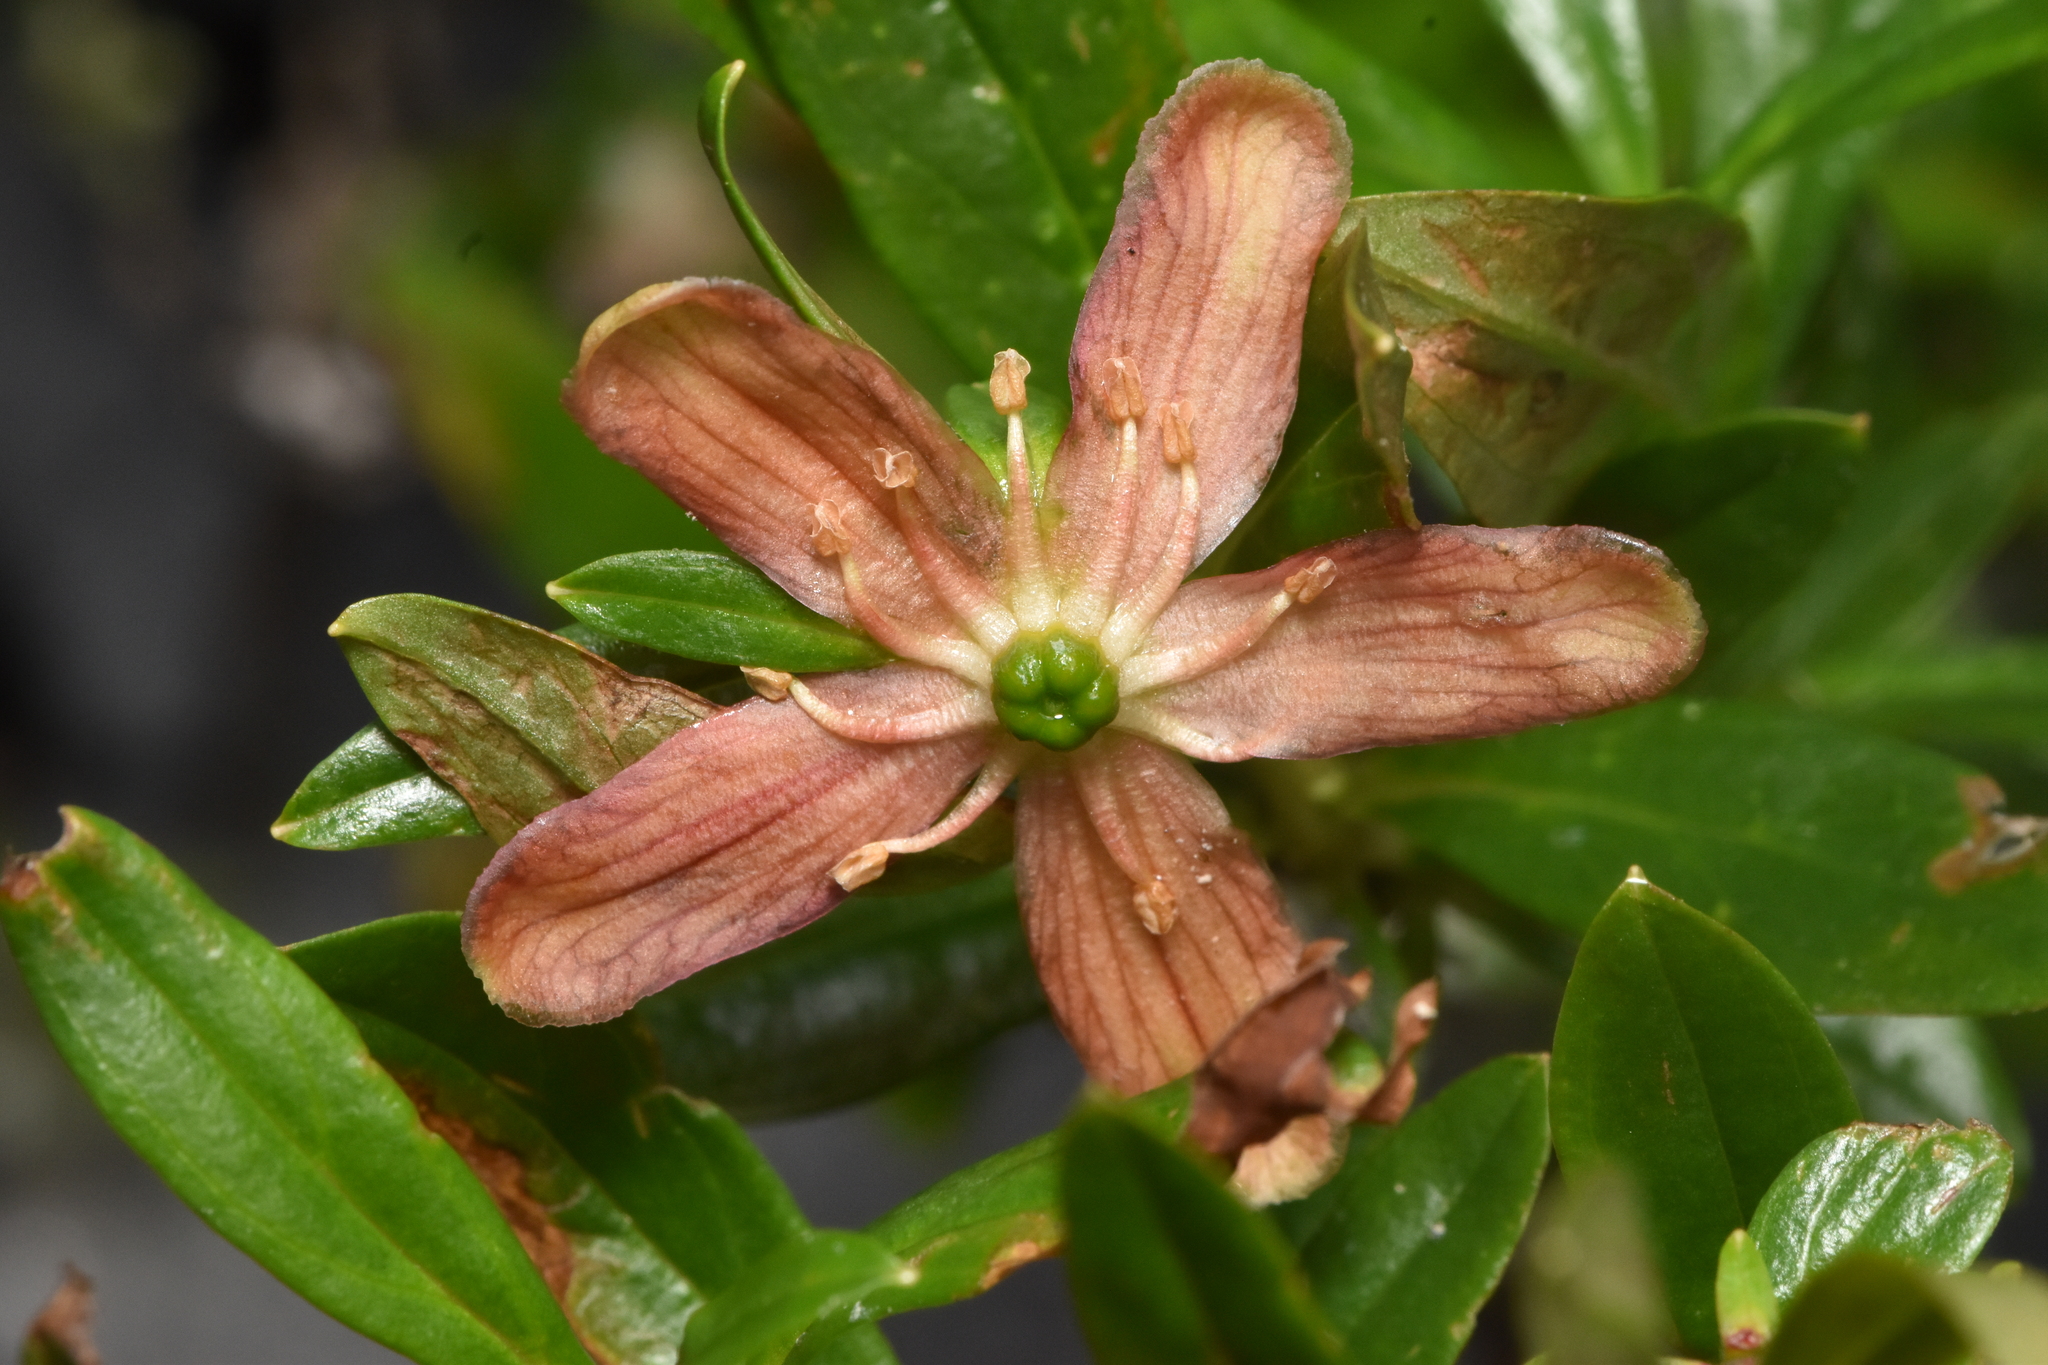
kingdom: Plantae
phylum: Tracheophyta
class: Magnoliopsida
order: Ericales
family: Ericaceae
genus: Elliottia
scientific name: Elliottia pyroliflora
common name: Copperbush
